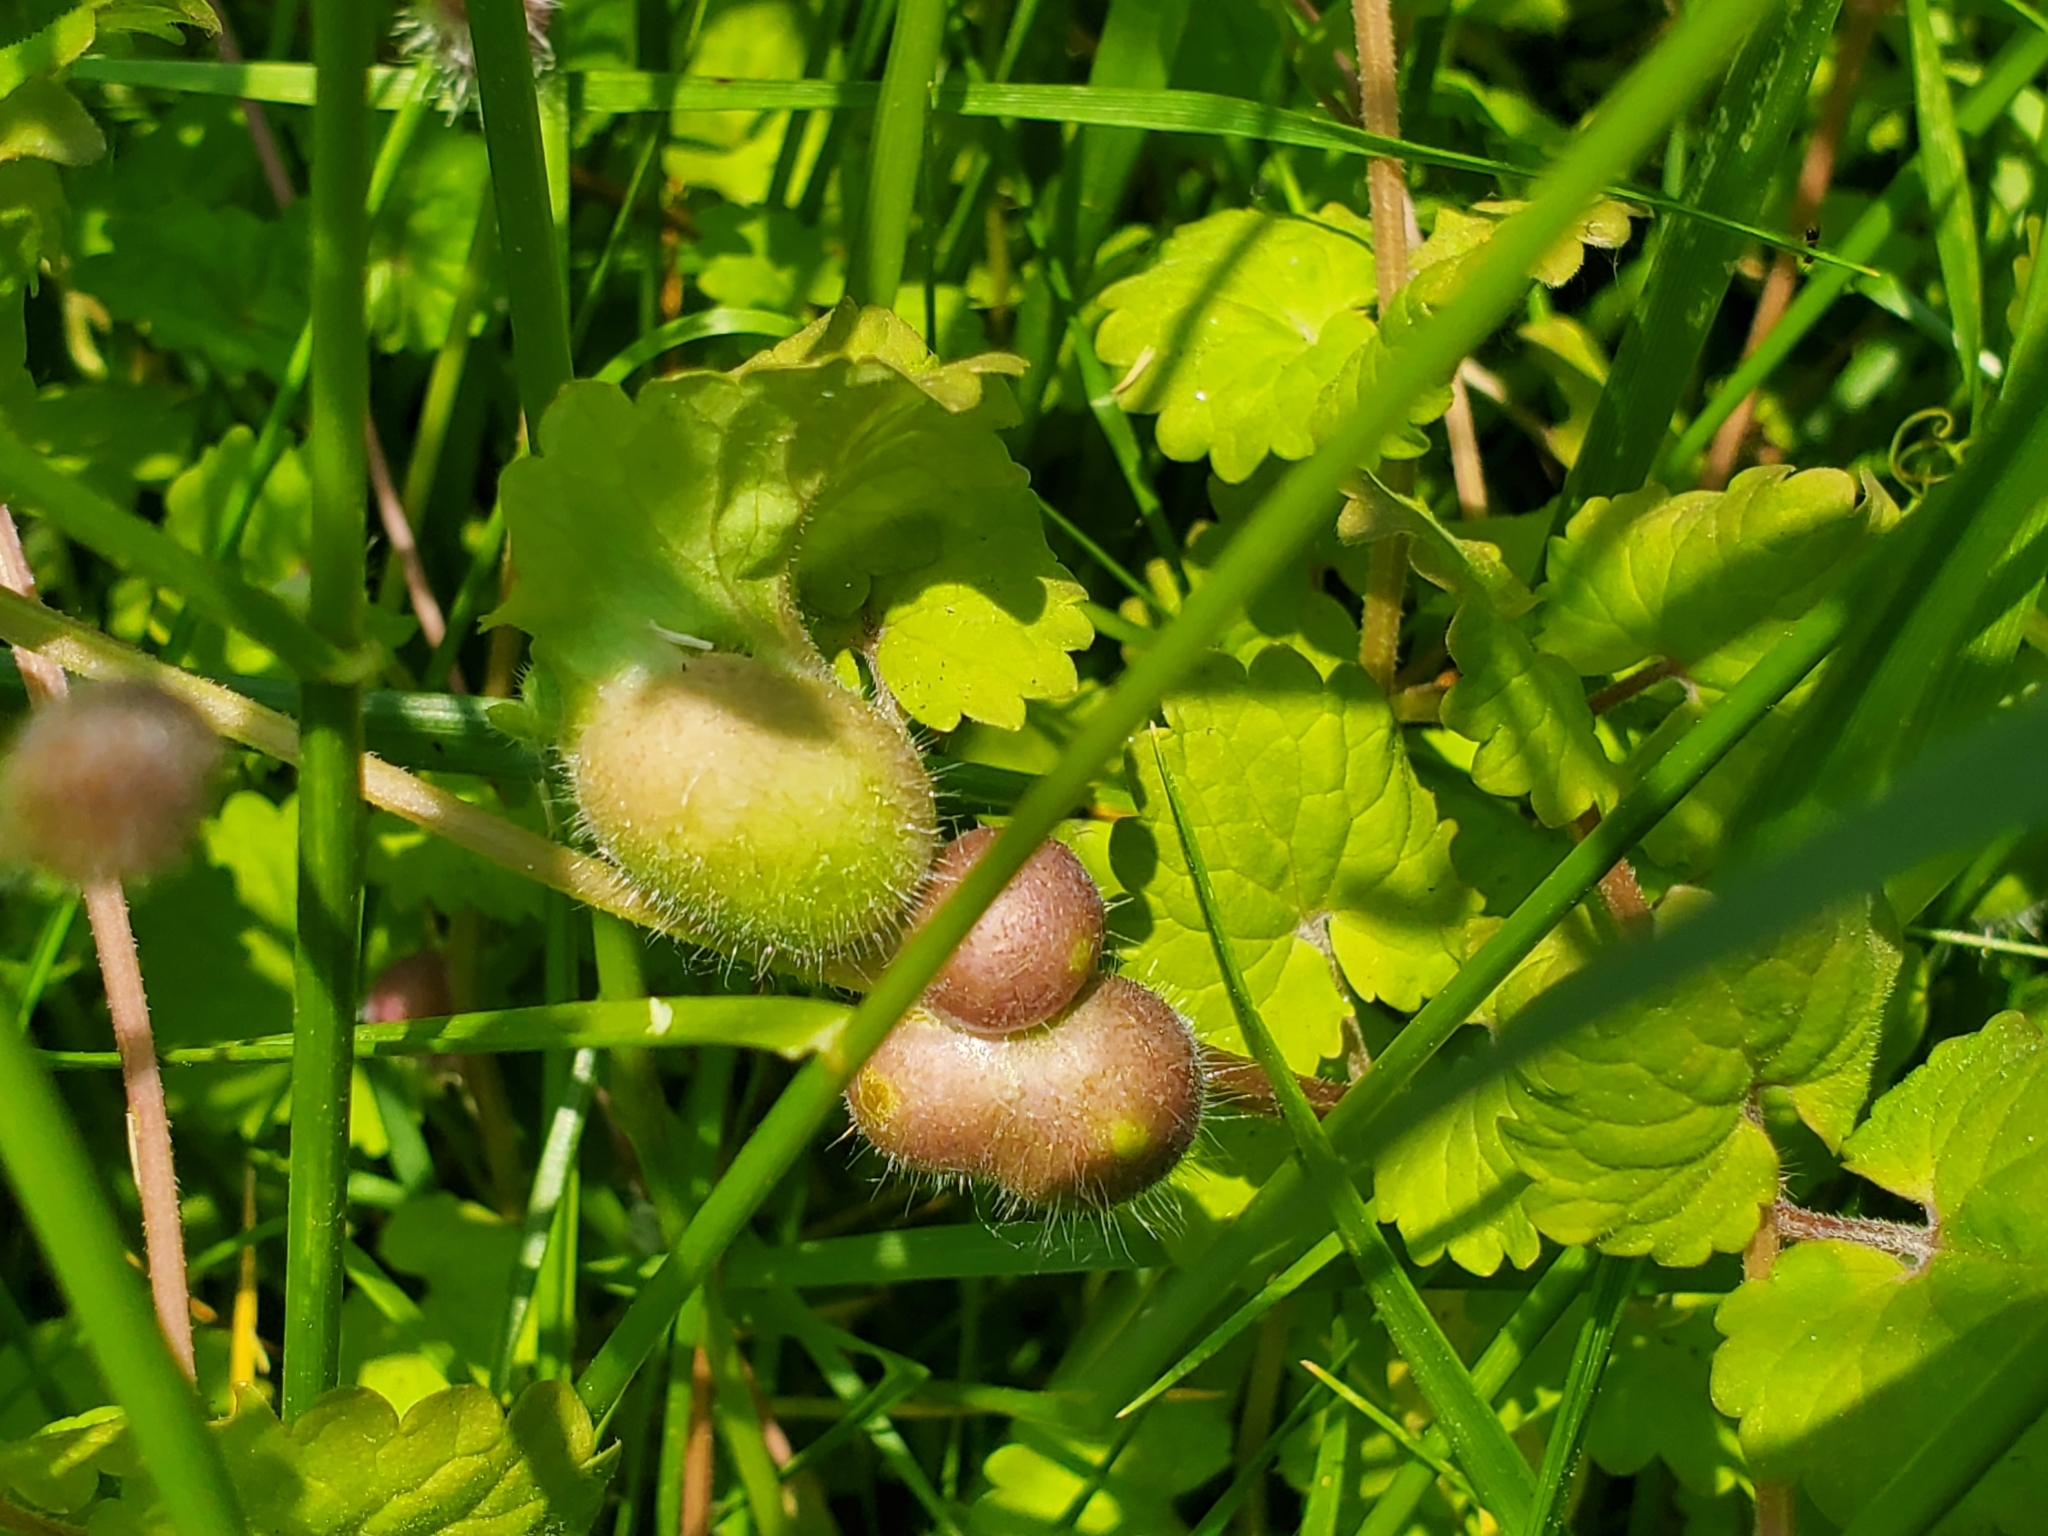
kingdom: Animalia
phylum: Arthropoda
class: Insecta
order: Hymenoptera
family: Cynipidae
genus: Liposthenes
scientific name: Liposthenes glechomae
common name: Gall wasp
